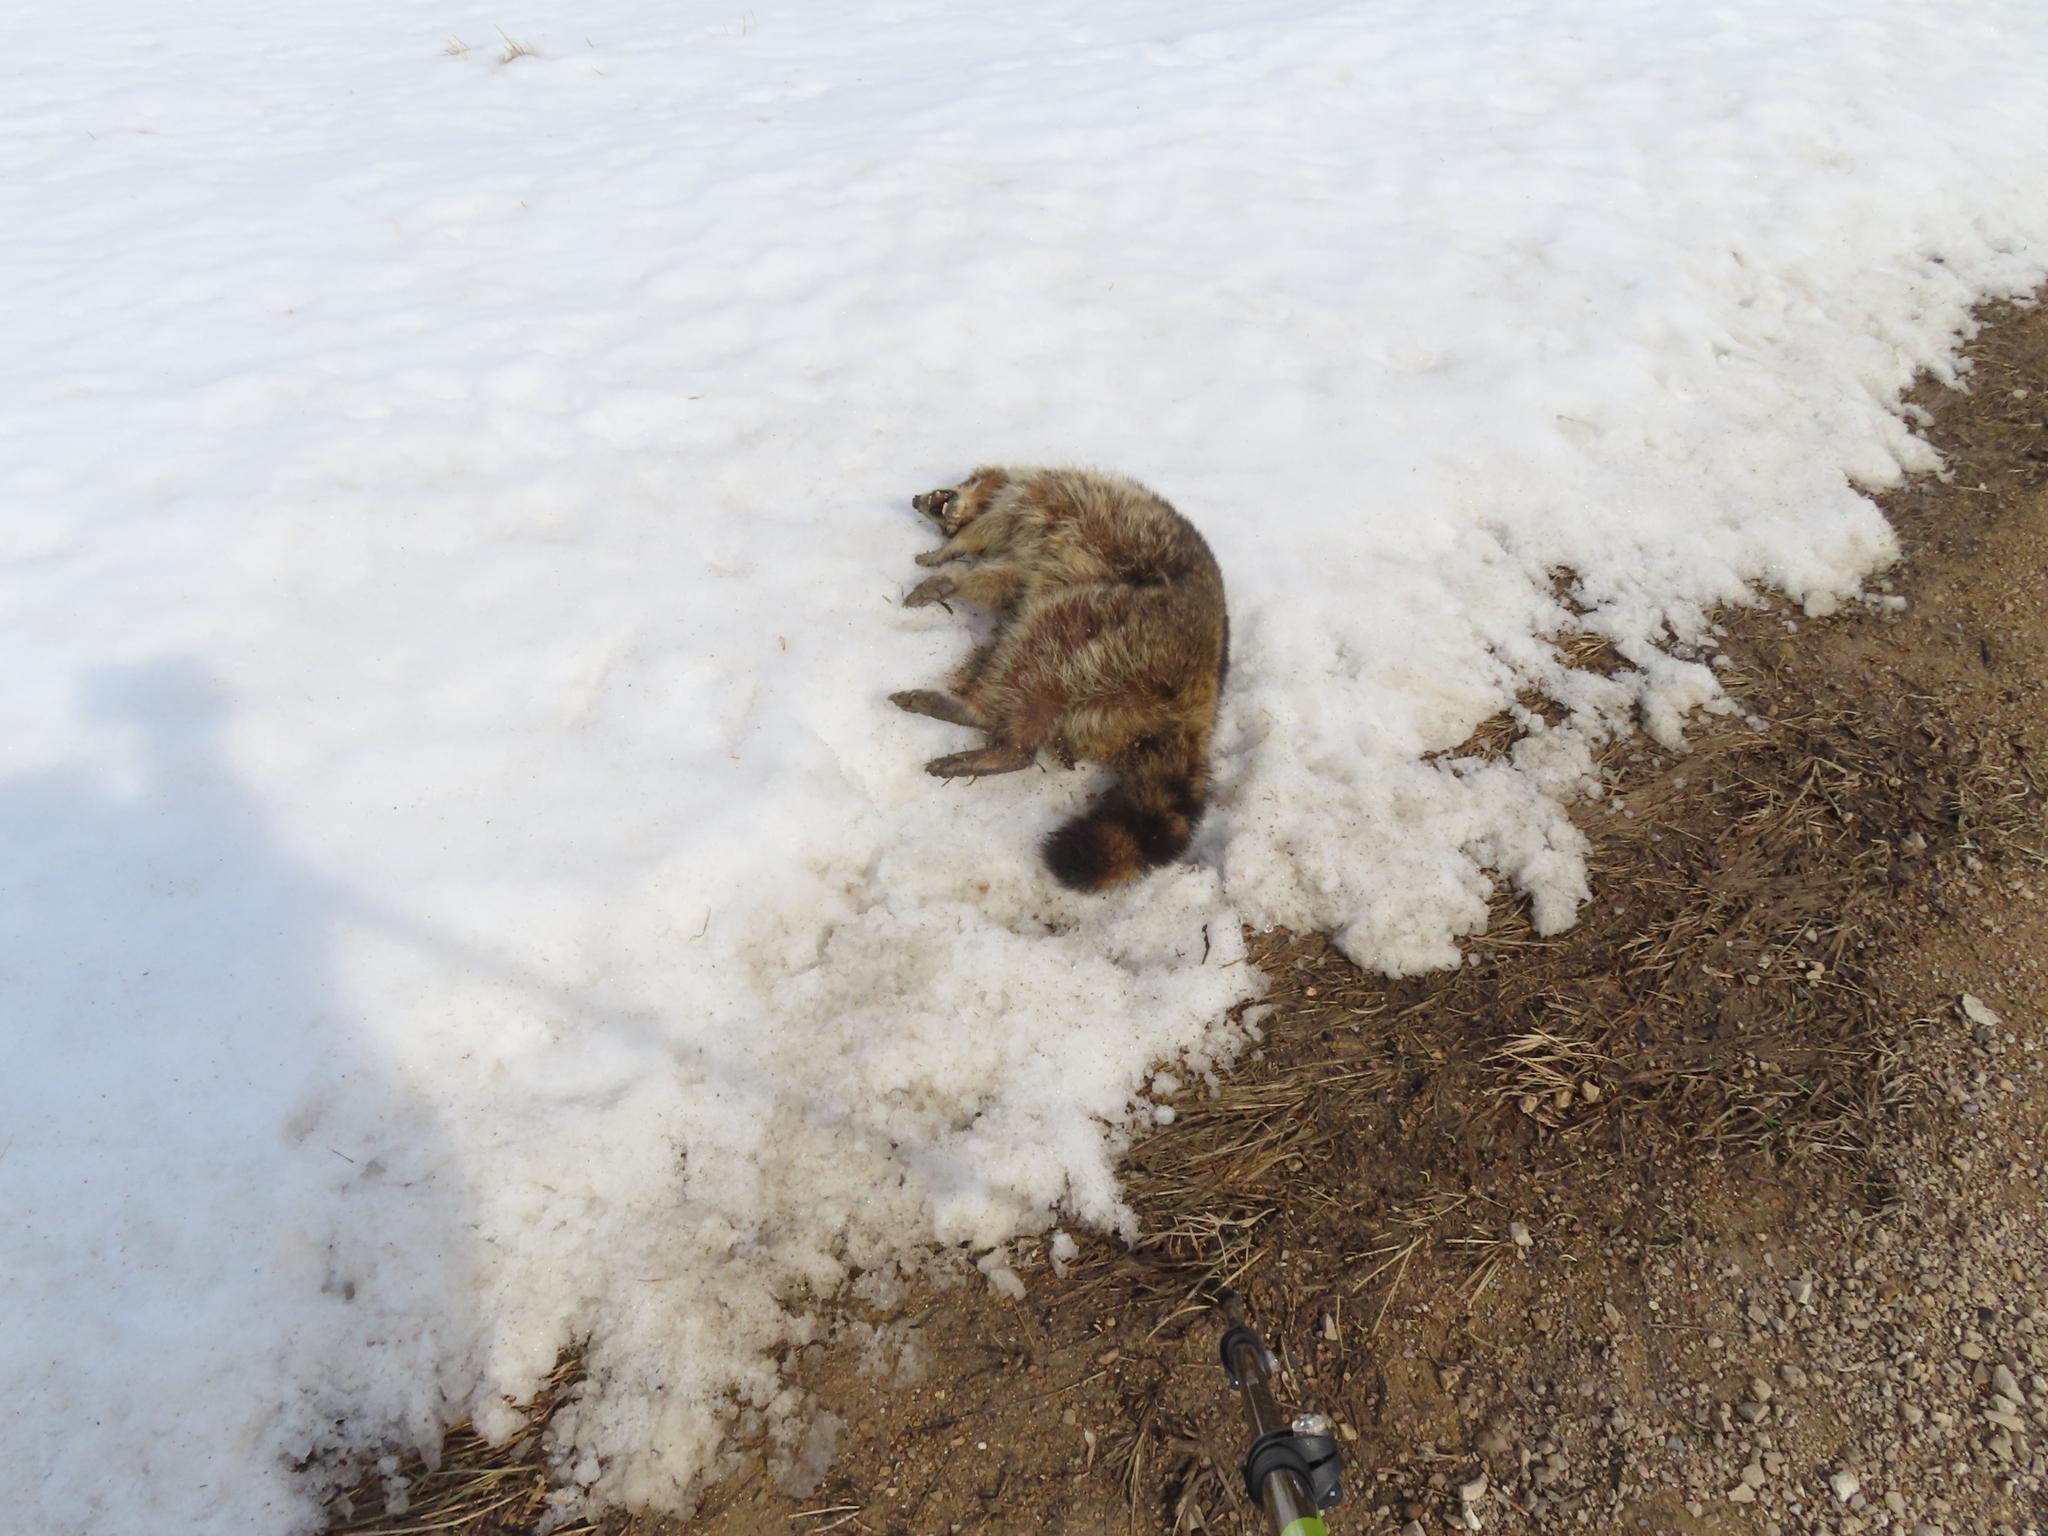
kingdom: Animalia
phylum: Chordata
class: Mammalia
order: Carnivora
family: Procyonidae
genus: Procyon
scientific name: Procyon lotor
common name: Raccoon
